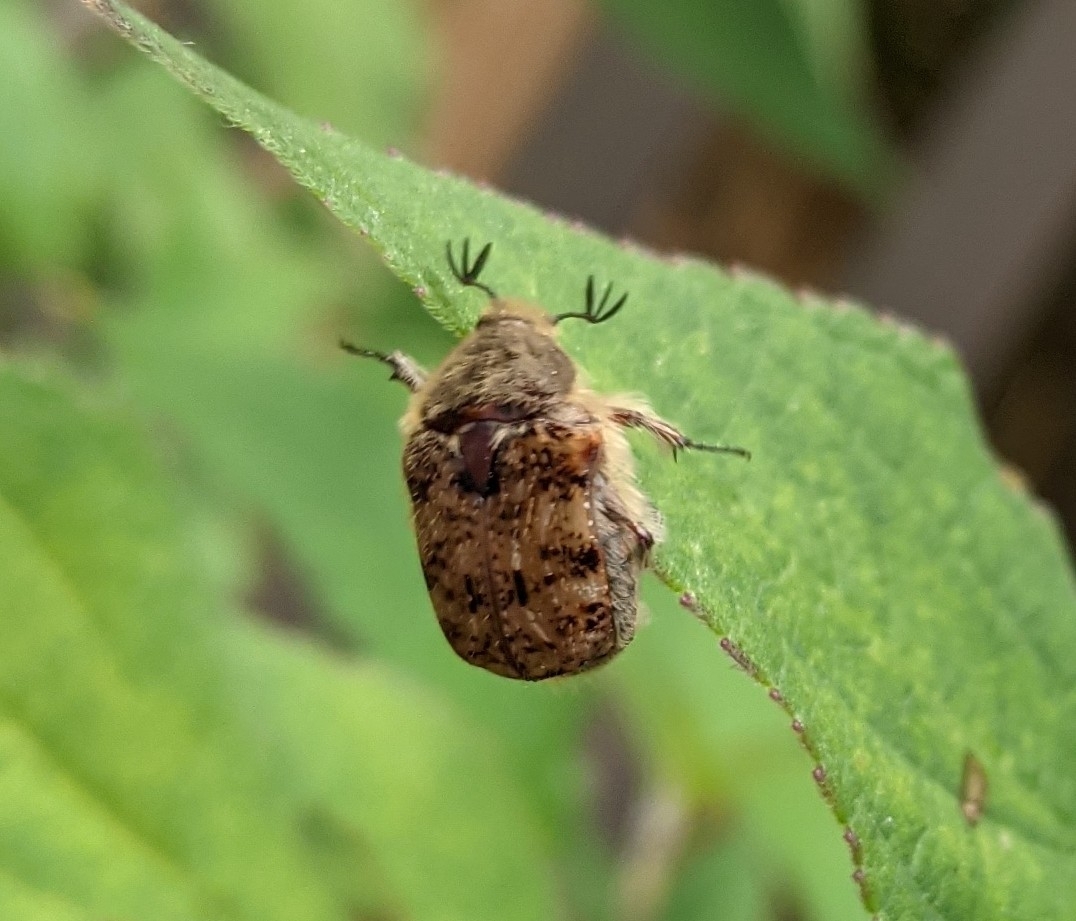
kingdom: Animalia
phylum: Arthropoda
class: Insecta
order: Coleoptera
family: Scarabaeidae
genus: Euphoria
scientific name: Euphoria inda
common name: Bumble flower beetle
